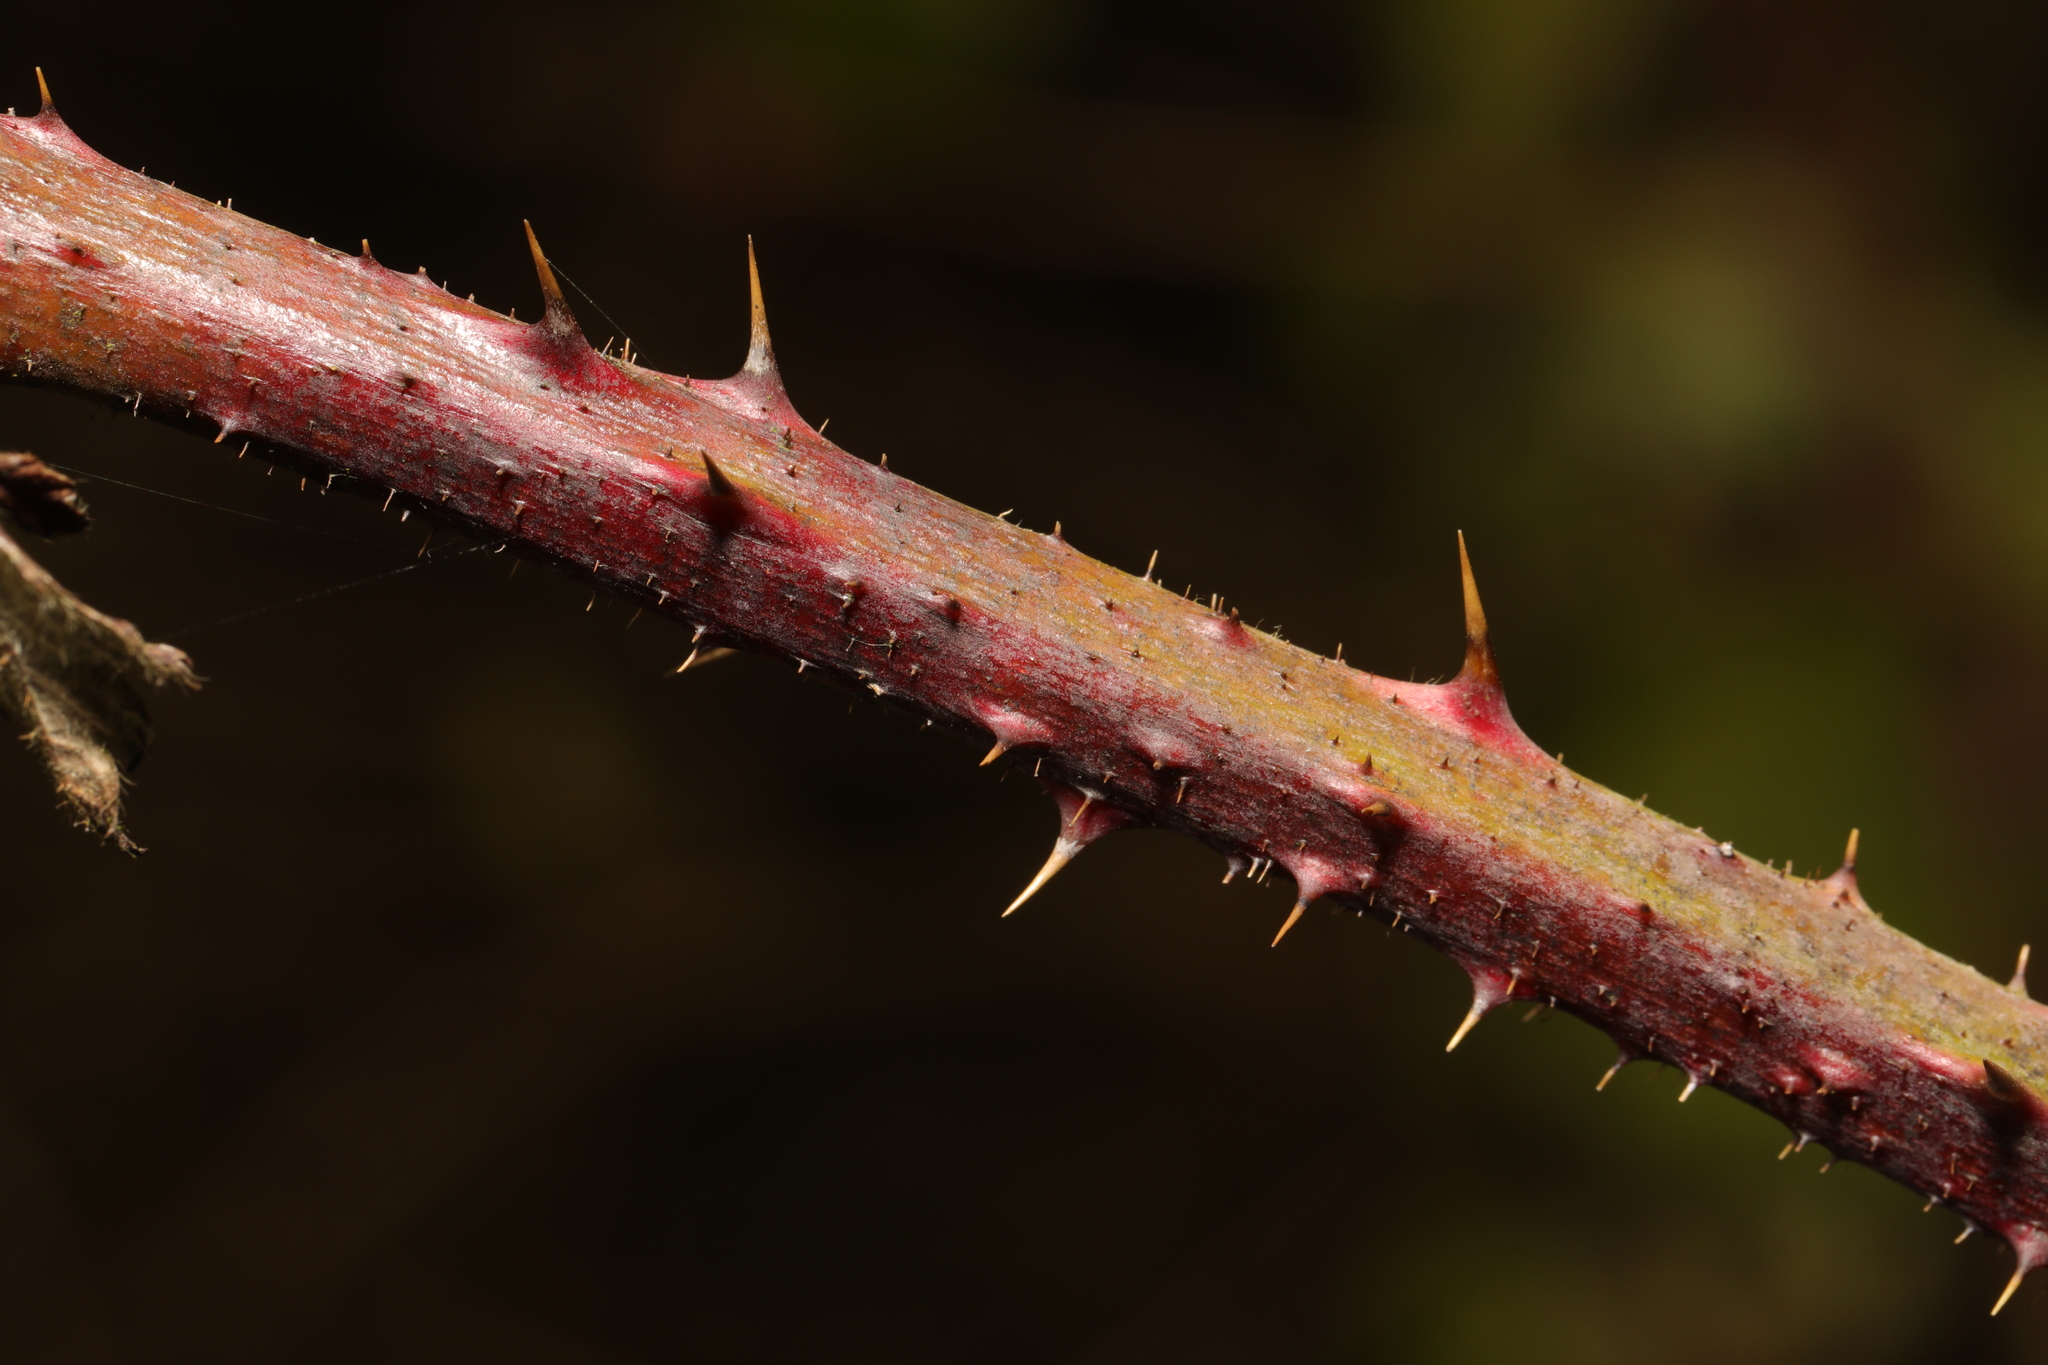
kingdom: Plantae
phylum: Tracheophyta
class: Magnoliopsida
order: Rosales
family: Rosaceae
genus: Rubus
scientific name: Rubus fruticosus
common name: Blackberry, bramble
